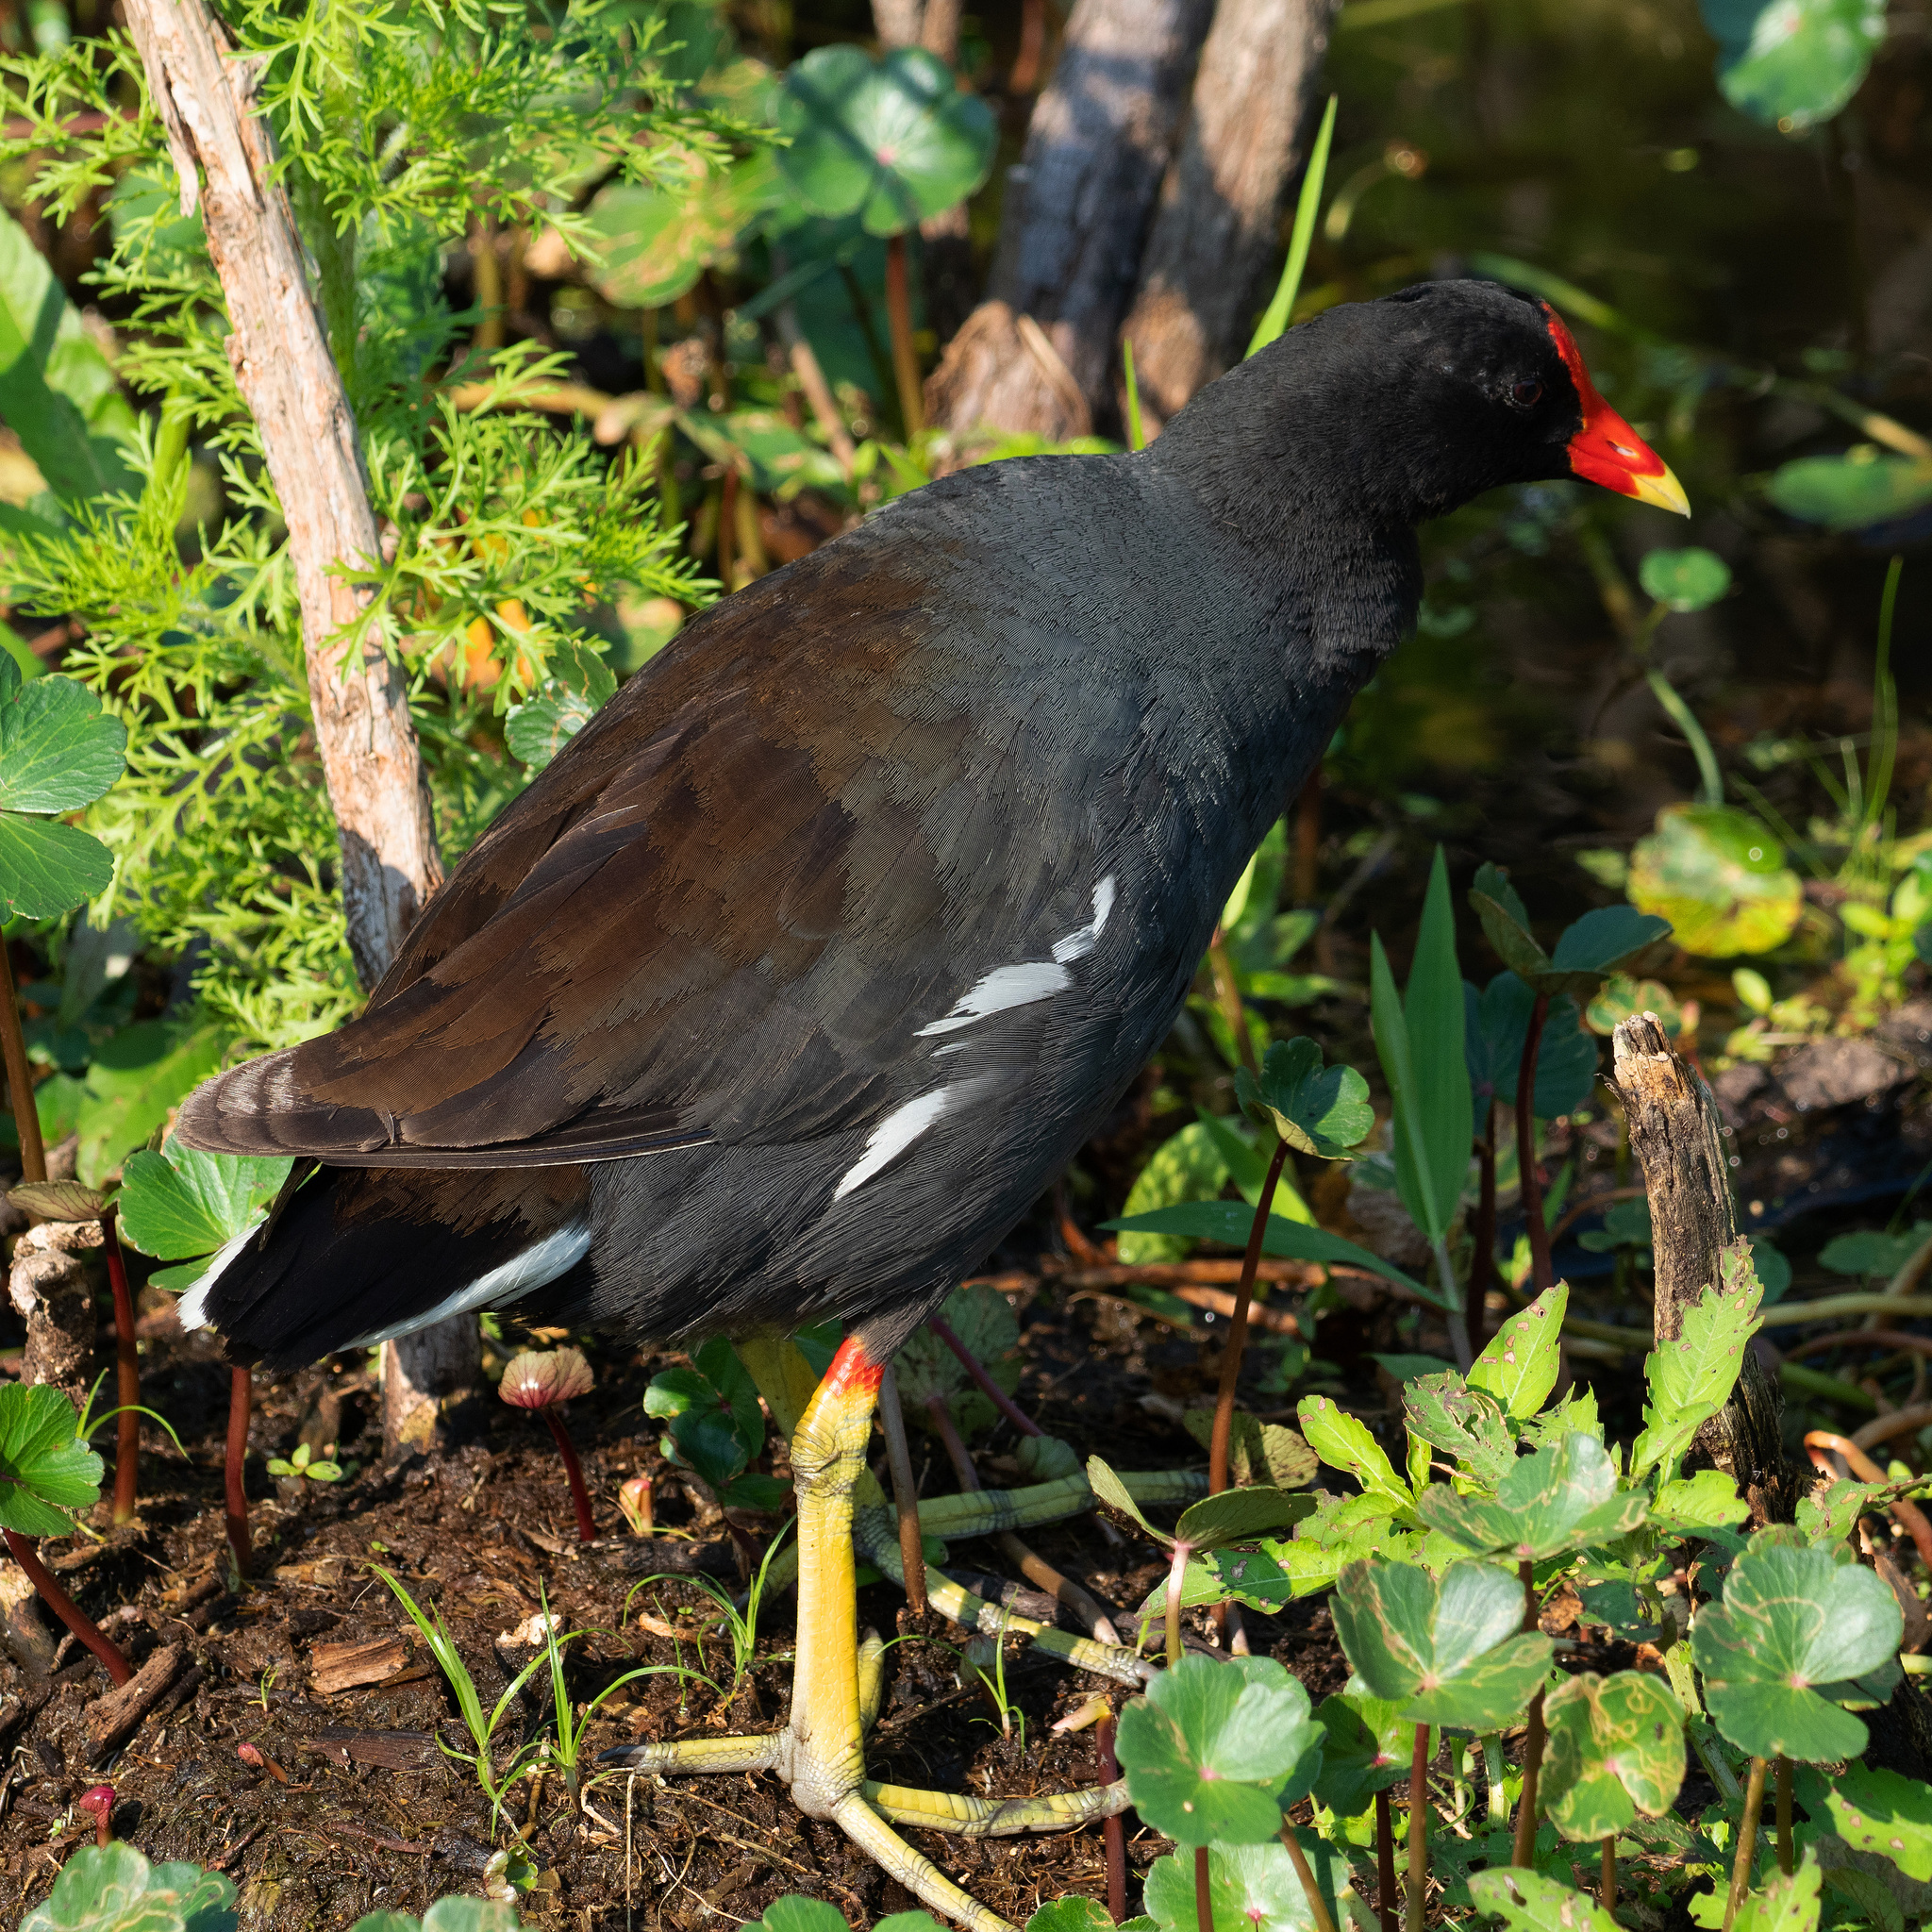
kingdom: Animalia
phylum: Chordata
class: Aves
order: Gruiformes
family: Rallidae
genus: Gallinula
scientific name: Gallinula chloropus
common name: Common moorhen
